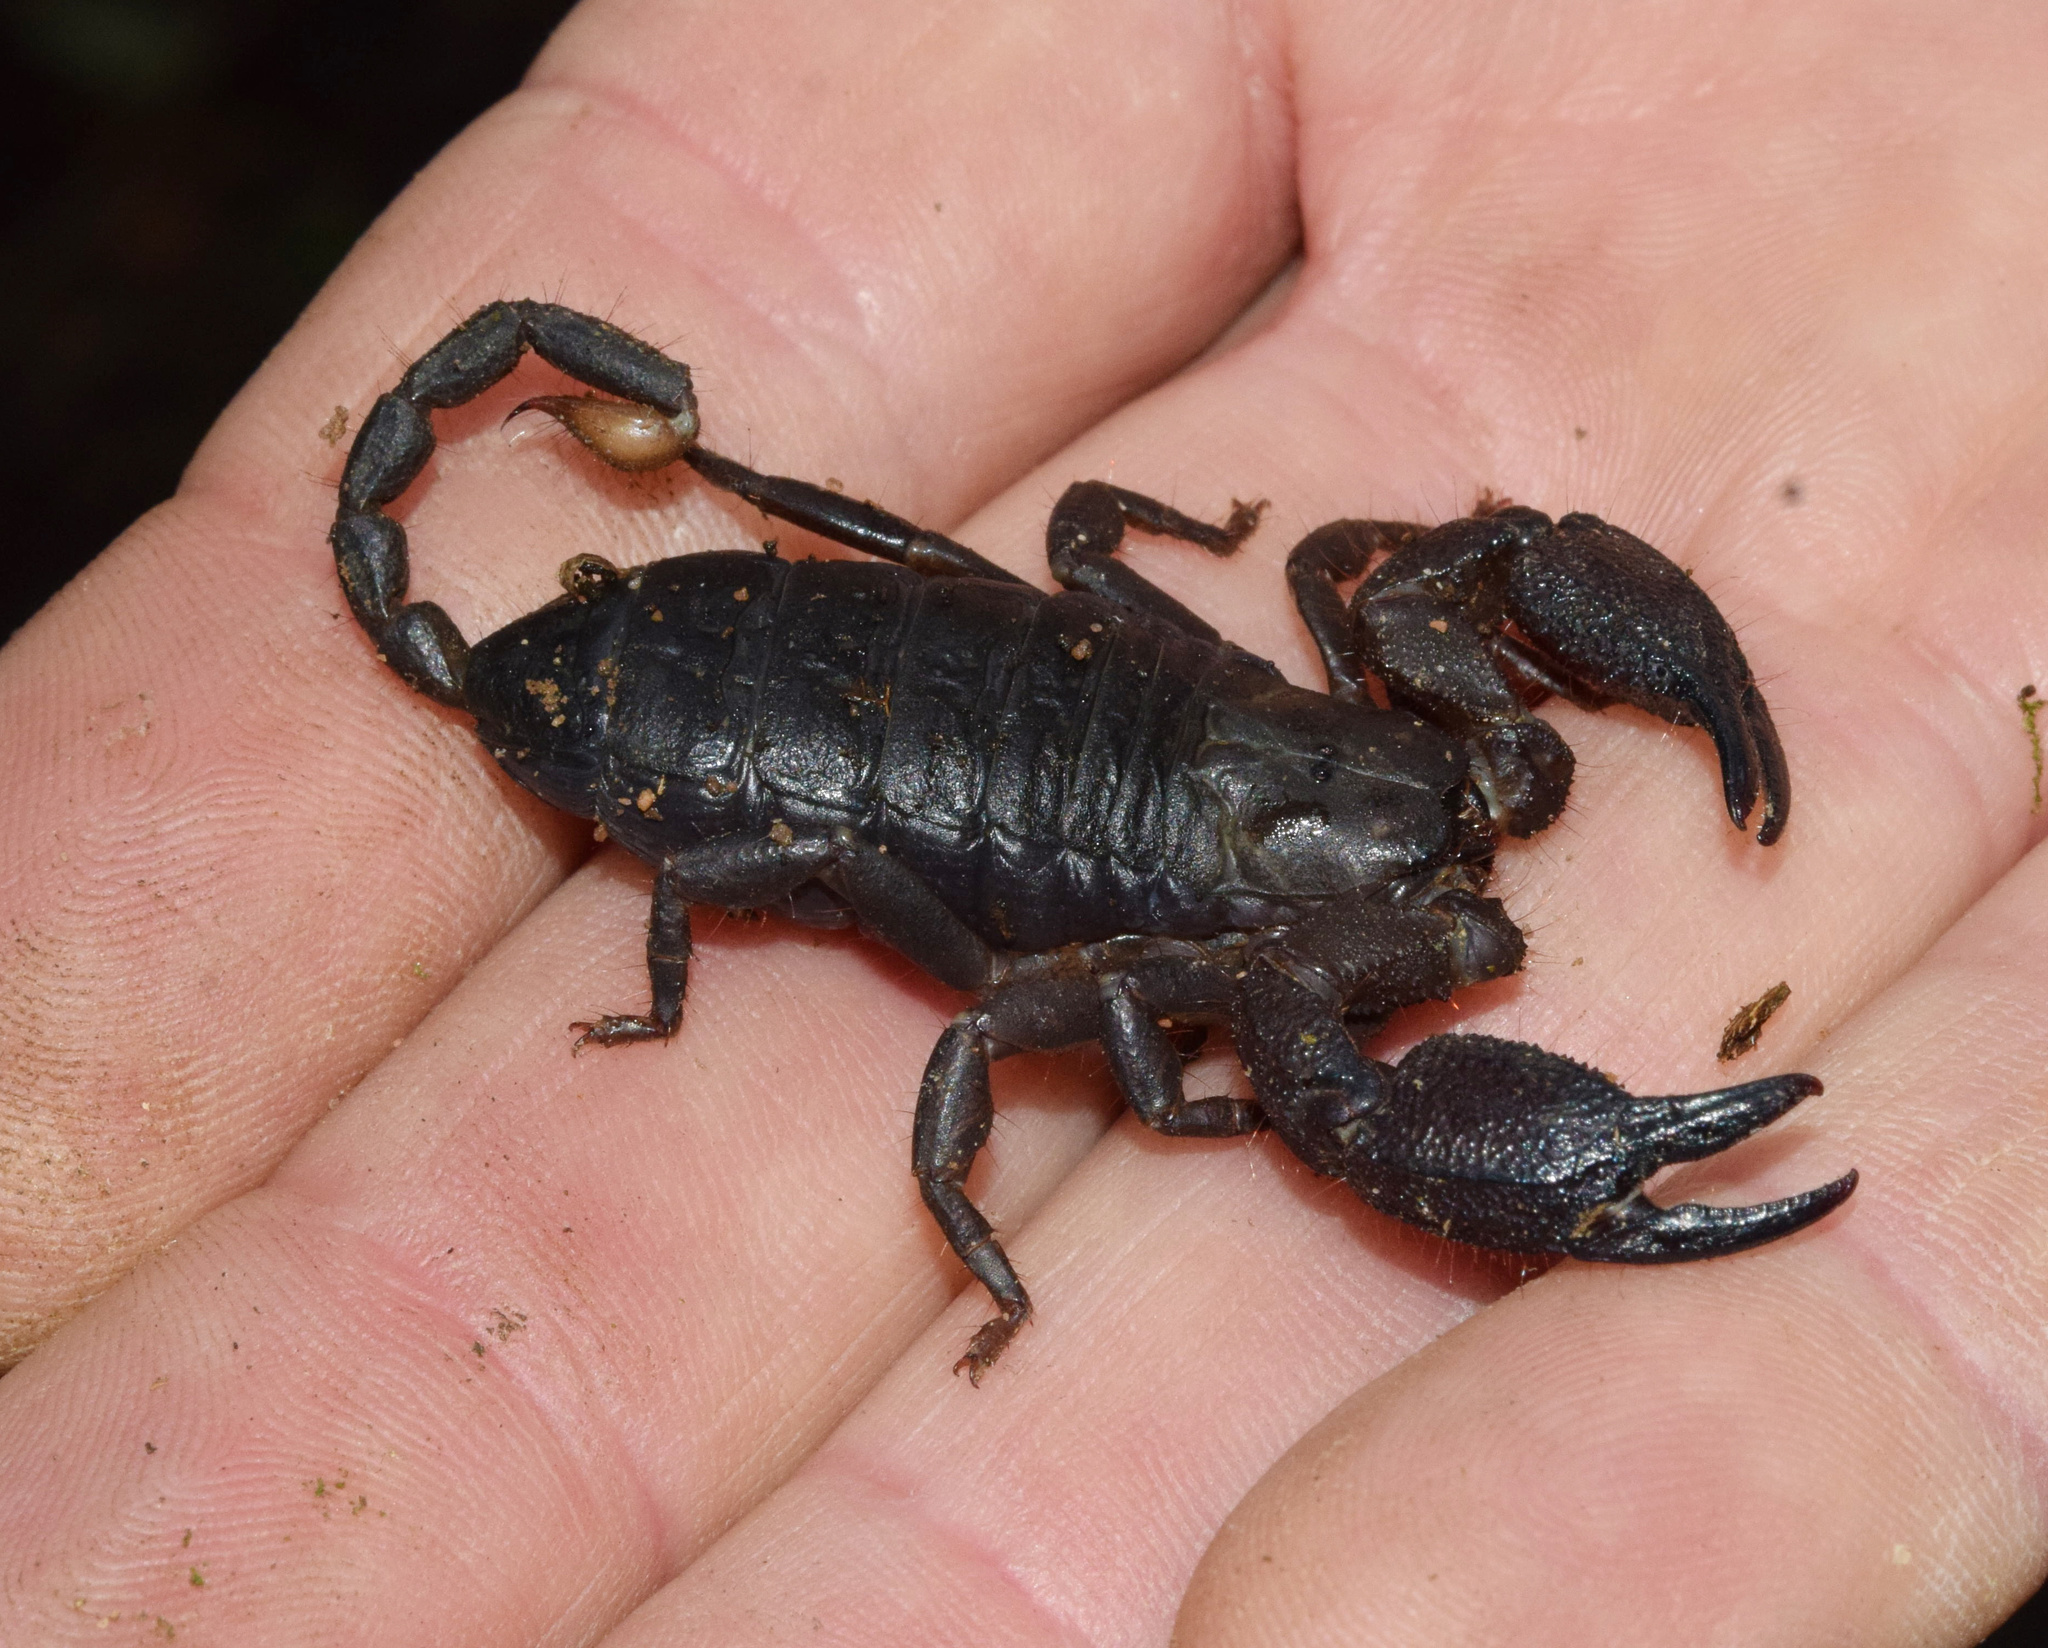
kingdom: Animalia
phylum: Arthropoda
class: Arachnida
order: Scorpiones
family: Hormuridae
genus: Opisthacanthus
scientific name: Opisthacanthus validus
